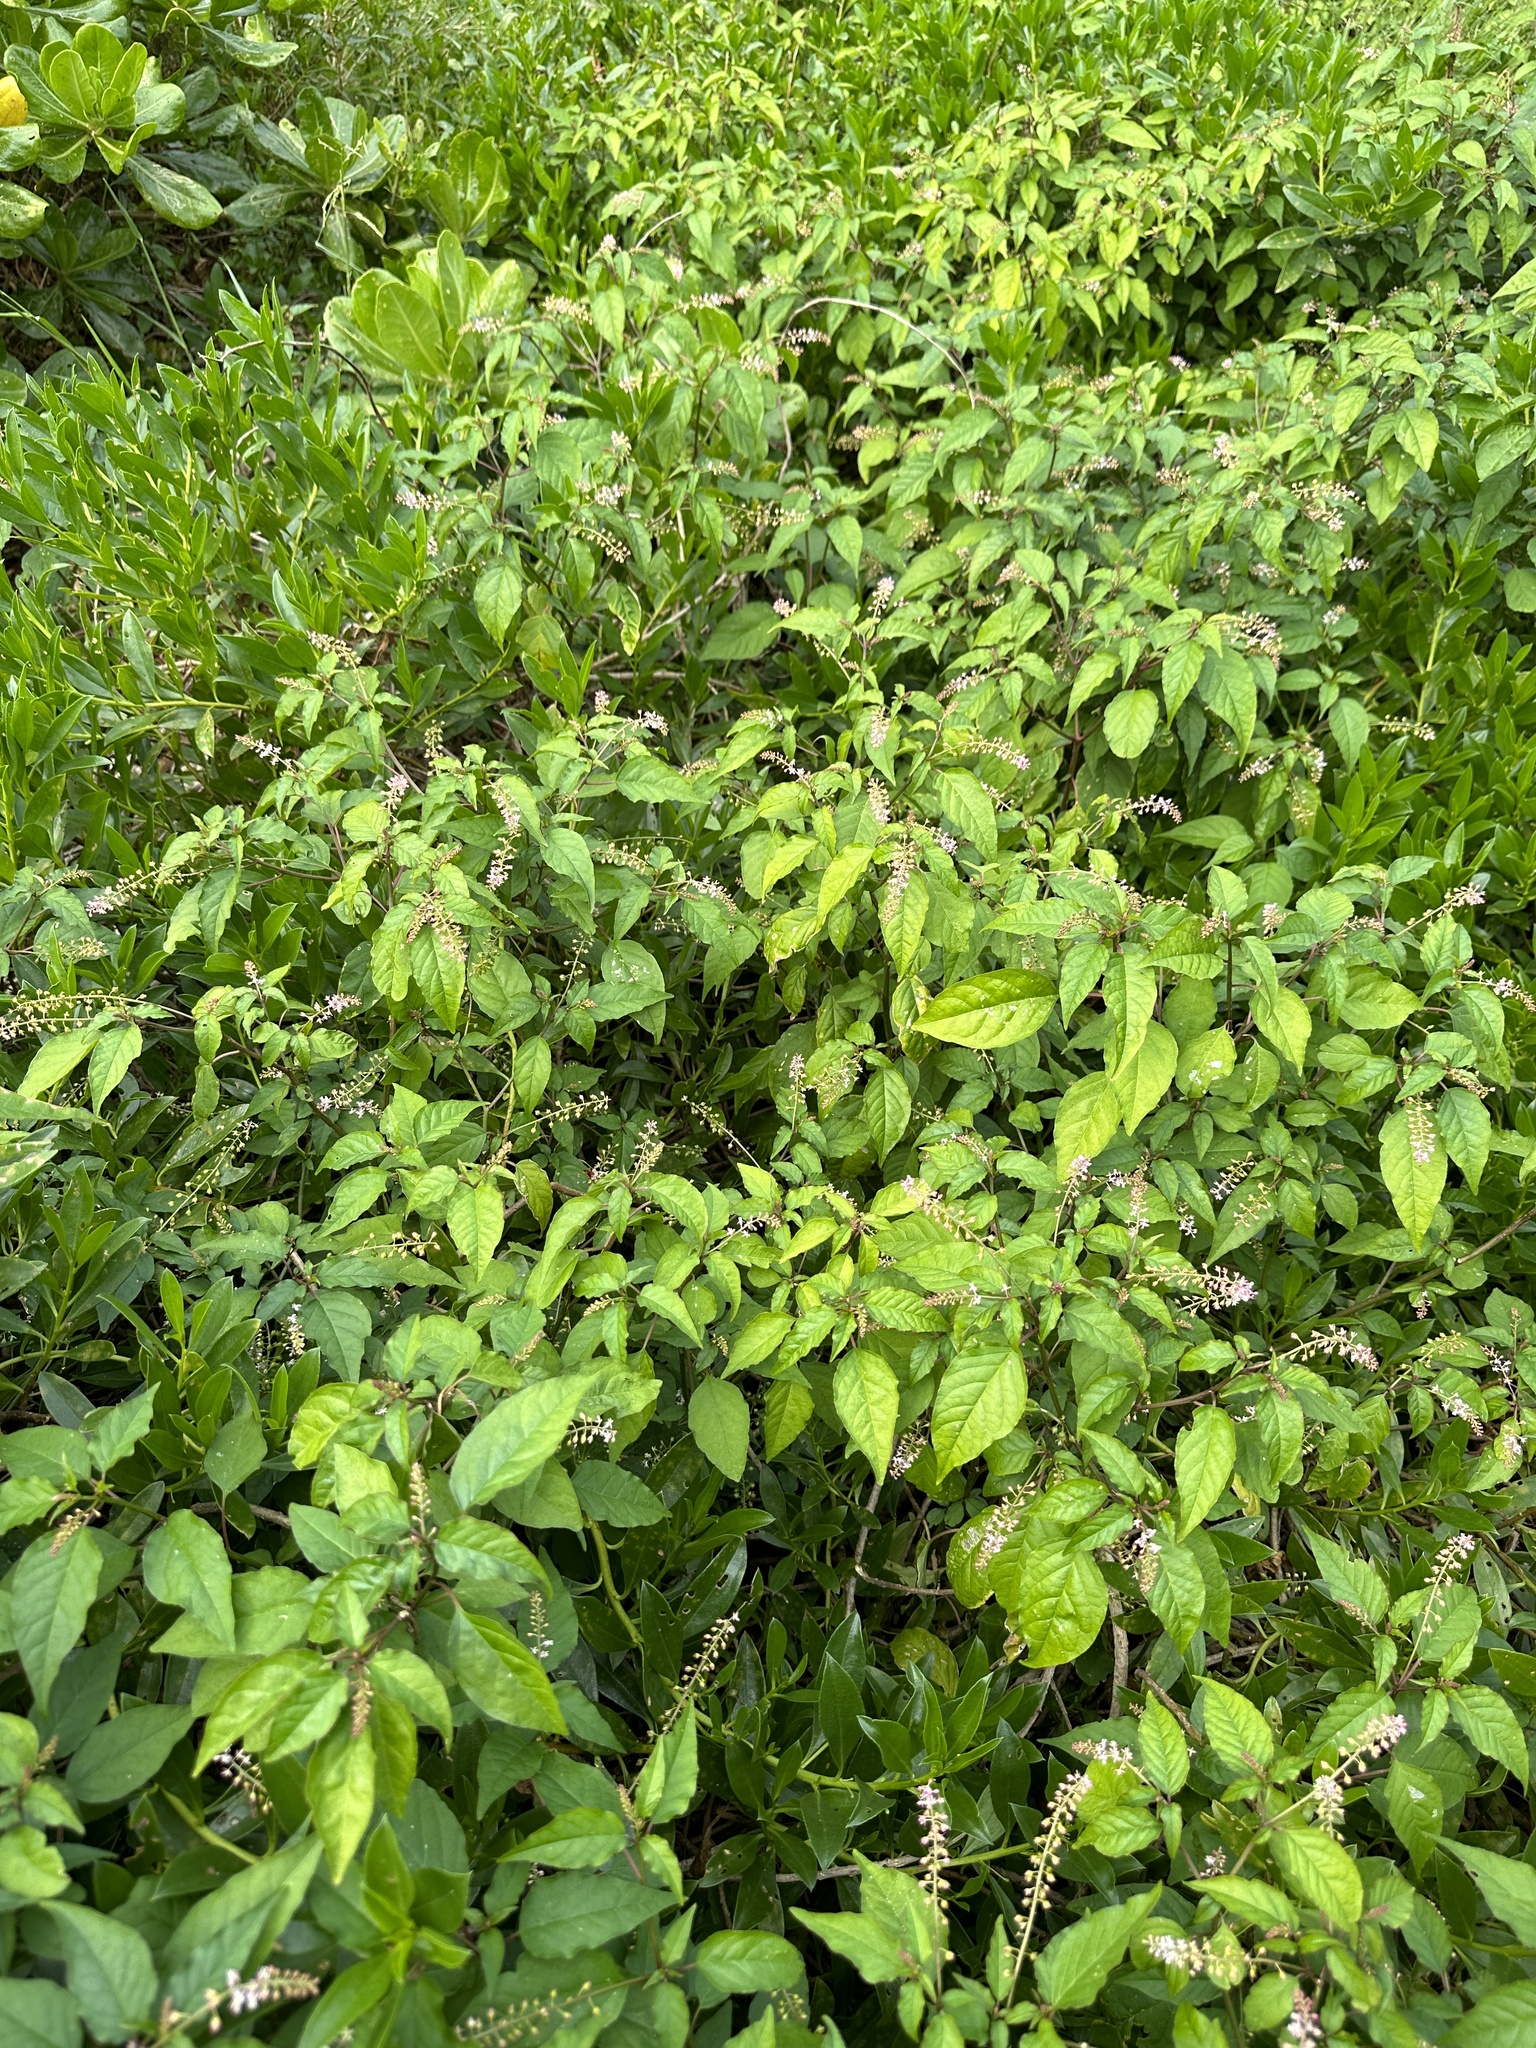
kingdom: Plantae
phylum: Tracheophyta
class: Magnoliopsida
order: Caryophyllales
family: Phytolaccaceae
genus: Rivina
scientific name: Rivina humilis
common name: Rougeplant
